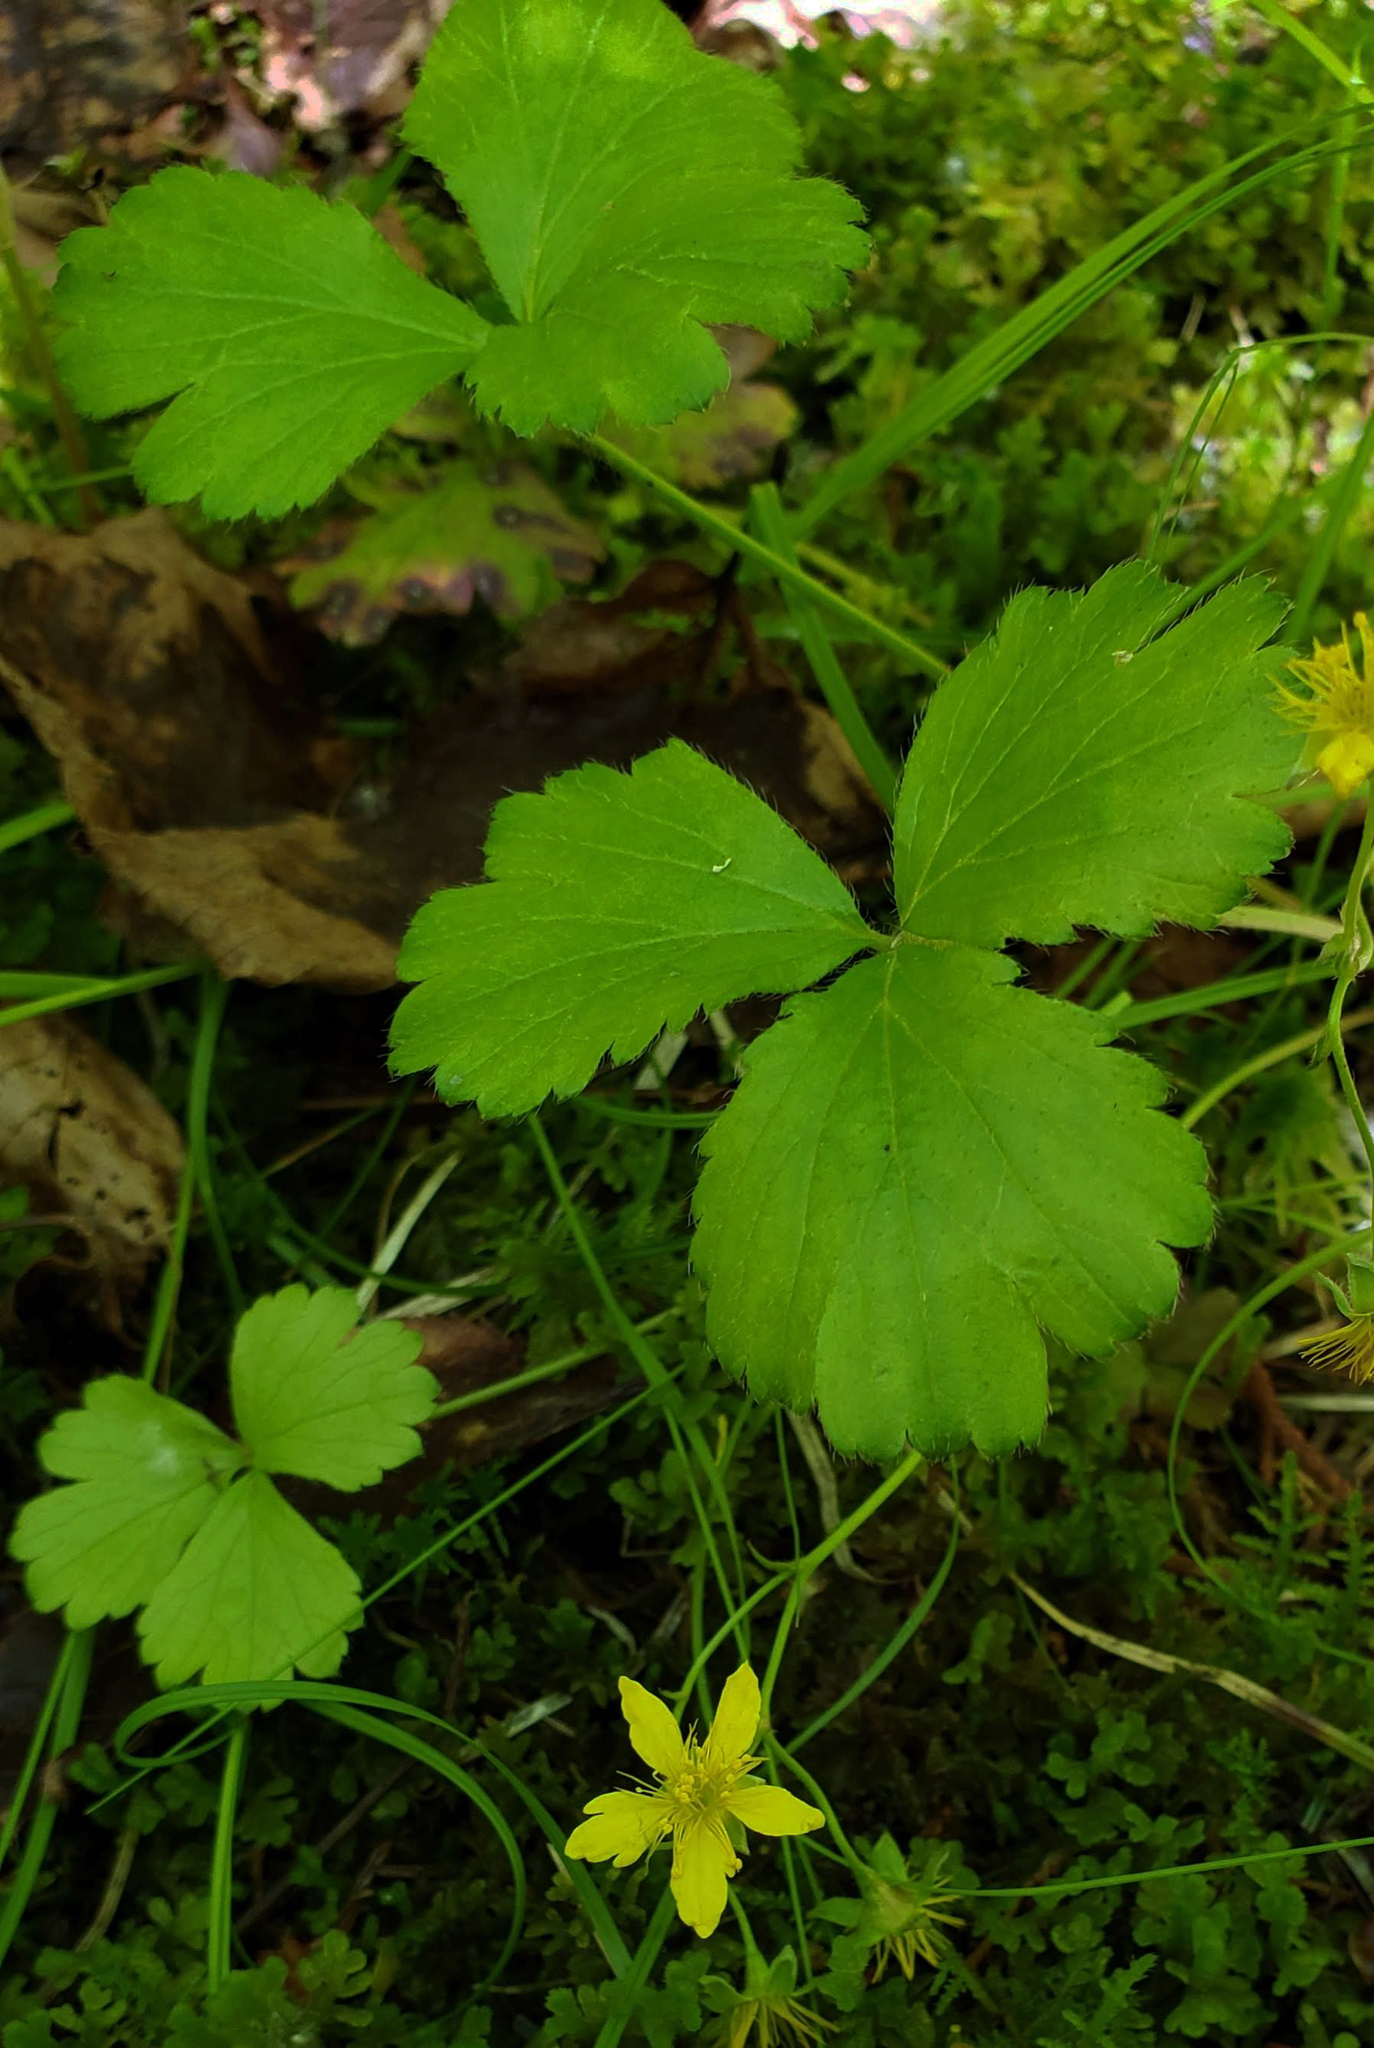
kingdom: Plantae
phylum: Tracheophyta
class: Magnoliopsida
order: Rosales
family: Rosaceae
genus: Geum
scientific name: Geum fragarioides
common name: Appalachian barren strawberry
